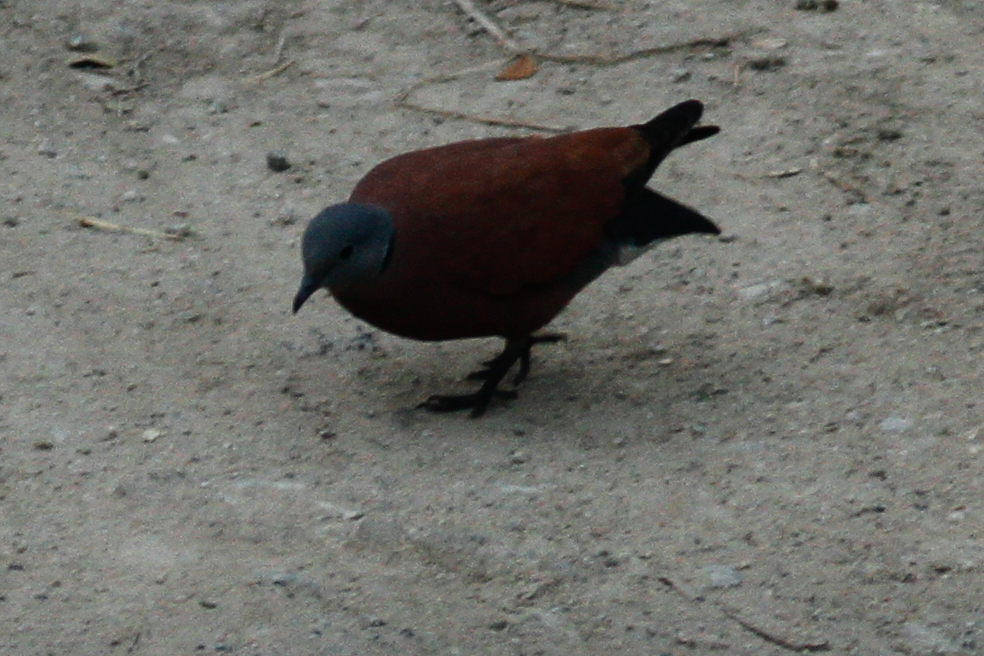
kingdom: Animalia
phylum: Chordata
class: Aves
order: Columbiformes
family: Columbidae
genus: Streptopelia
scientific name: Streptopelia tranquebarica
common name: Red turtle dove
